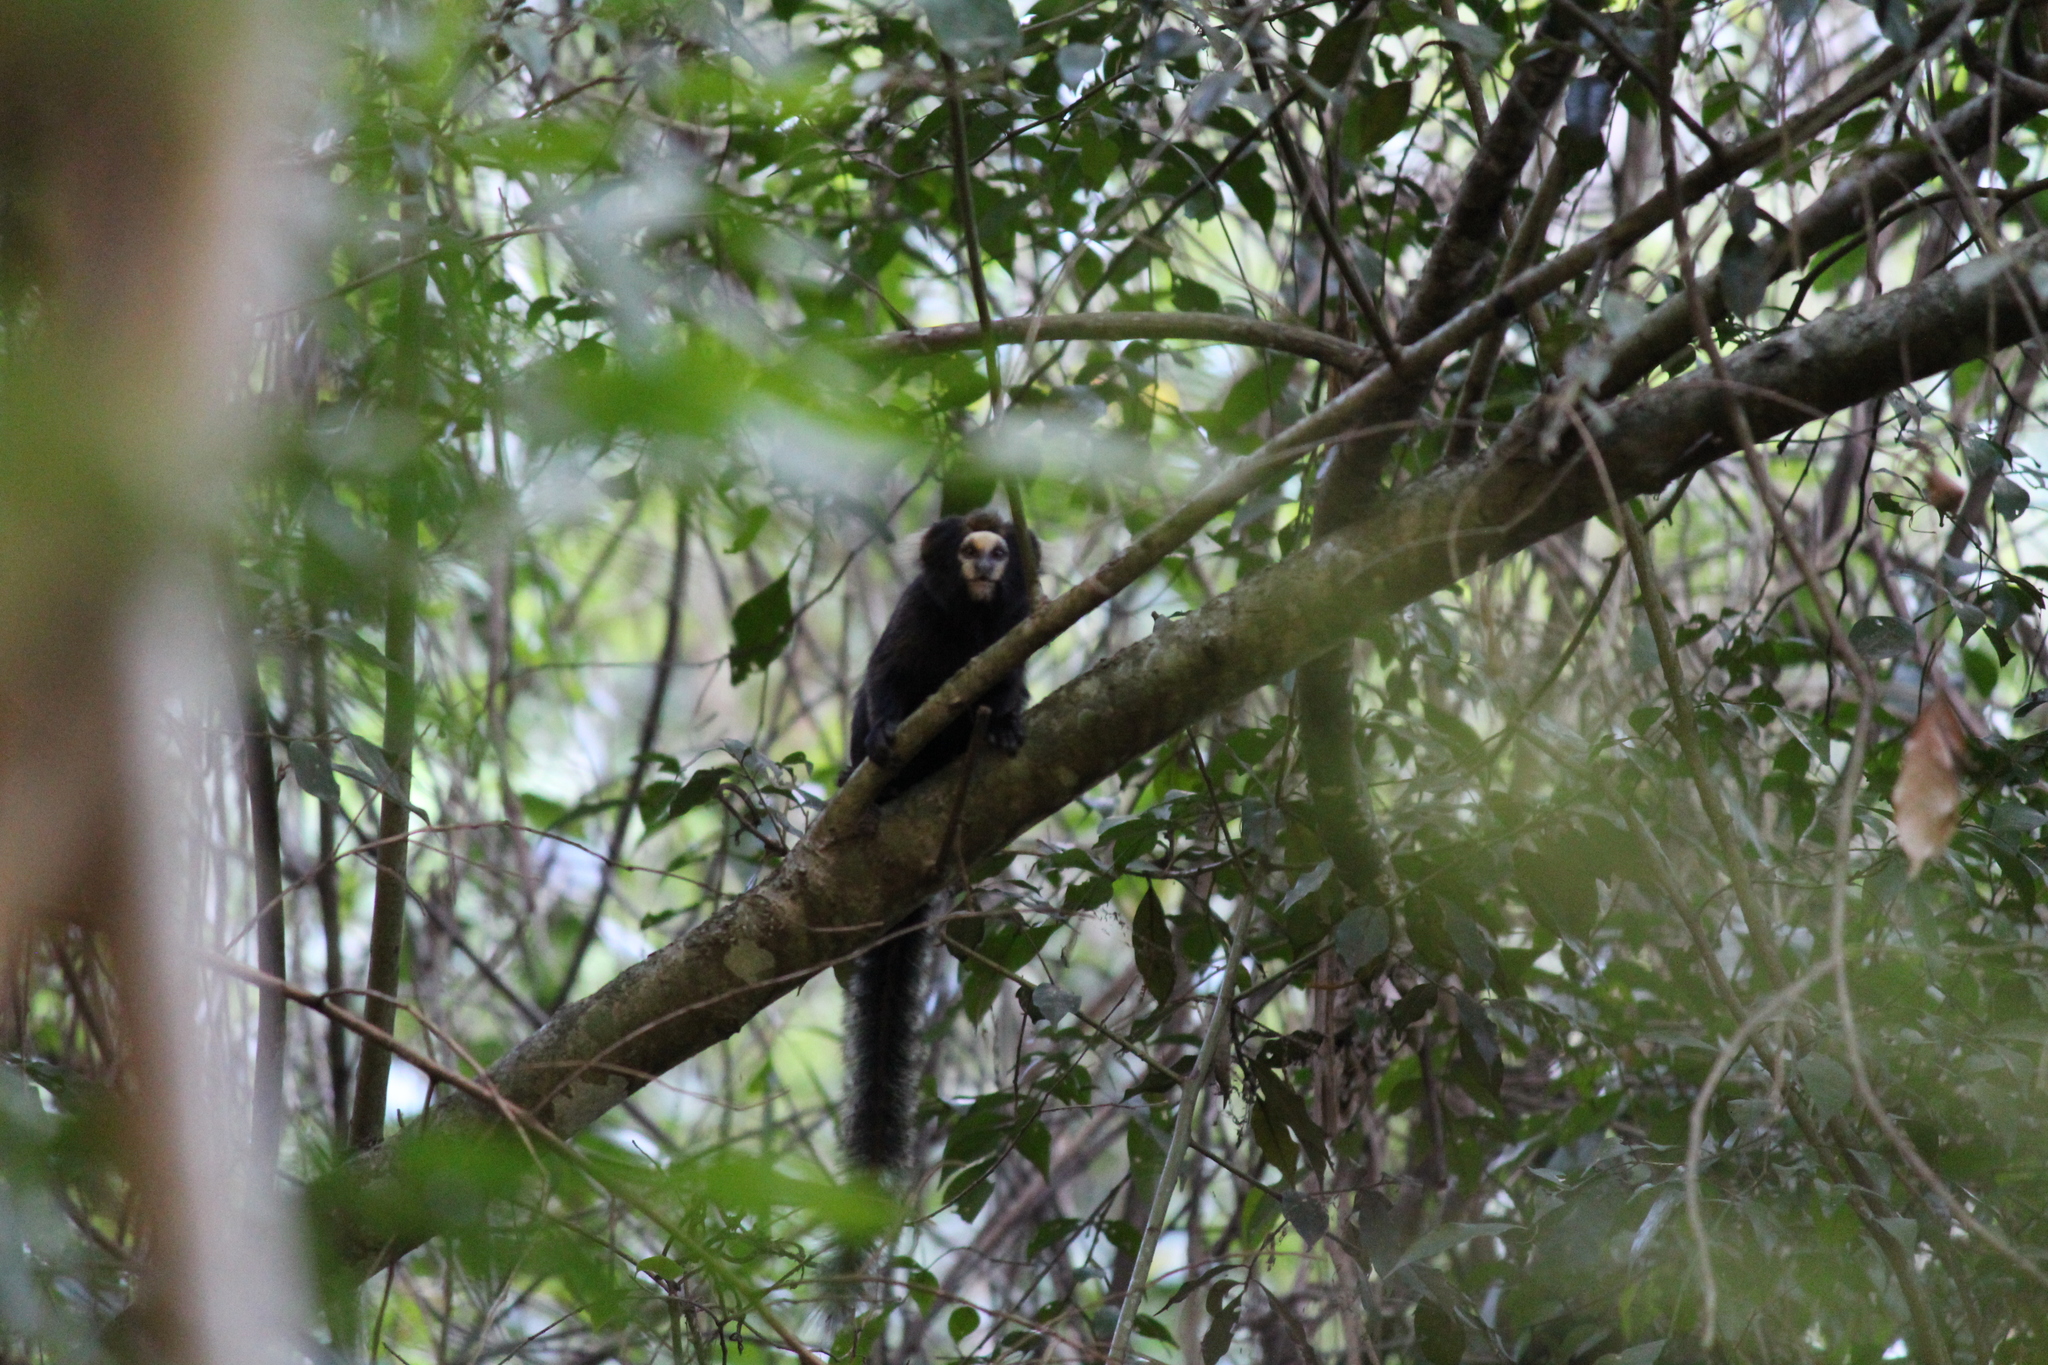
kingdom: Animalia
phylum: Chordata
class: Mammalia
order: Primates
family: Callitrichidae
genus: Callithrix
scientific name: Callithrix aurita
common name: Buffy-tufted marmoset
